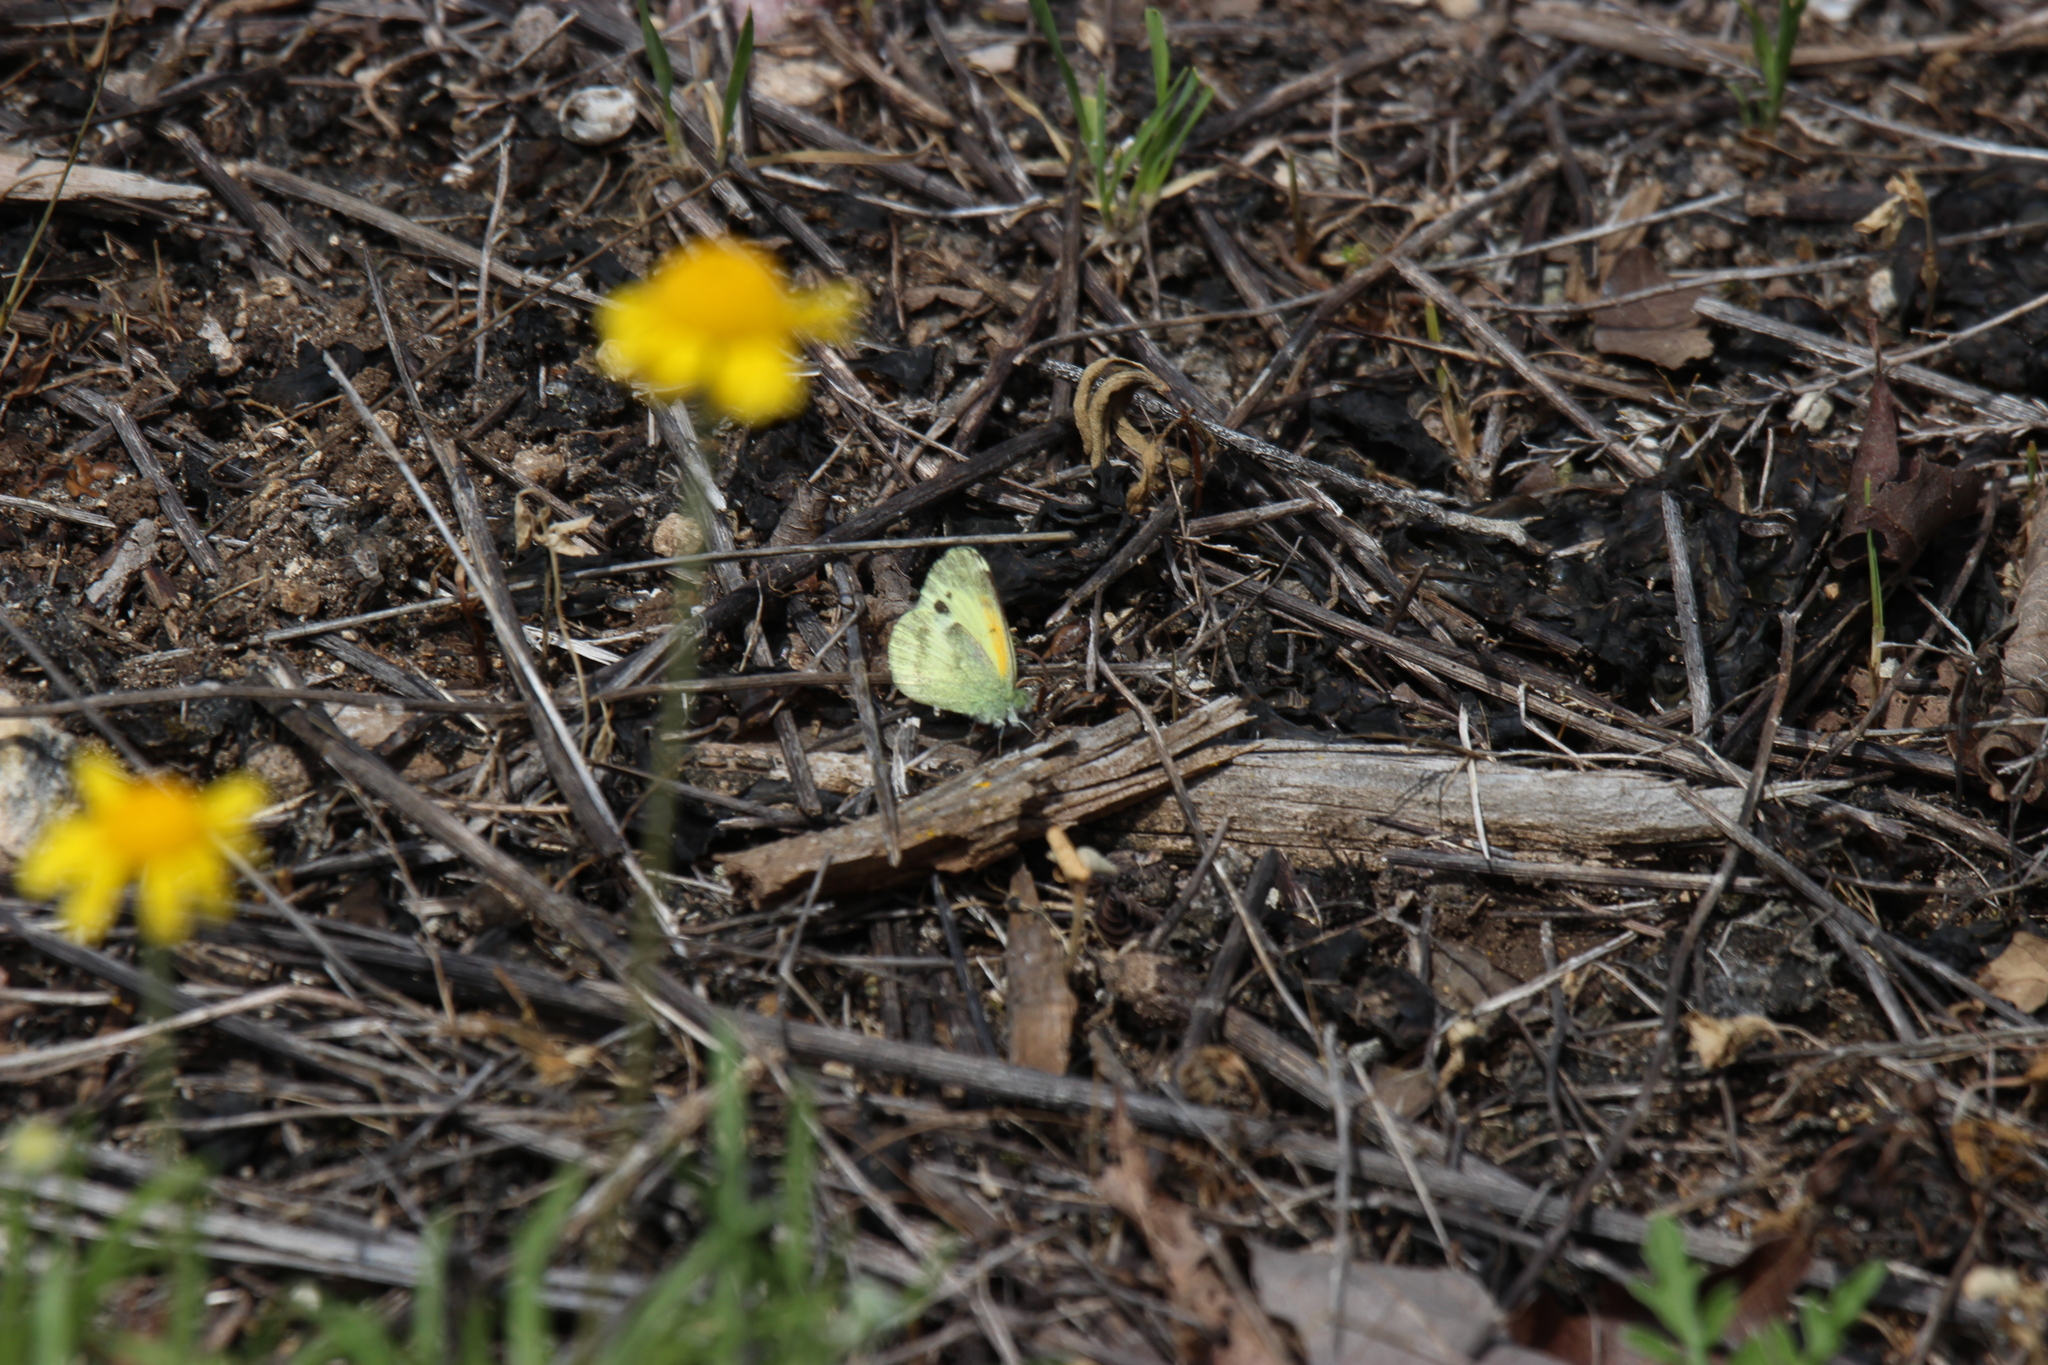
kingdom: Animalia
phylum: Arthropoda
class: Insecta
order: Lepidoptera
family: Pieridae
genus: Nathalis
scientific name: Nathalis iole
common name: Dainty sulphur
